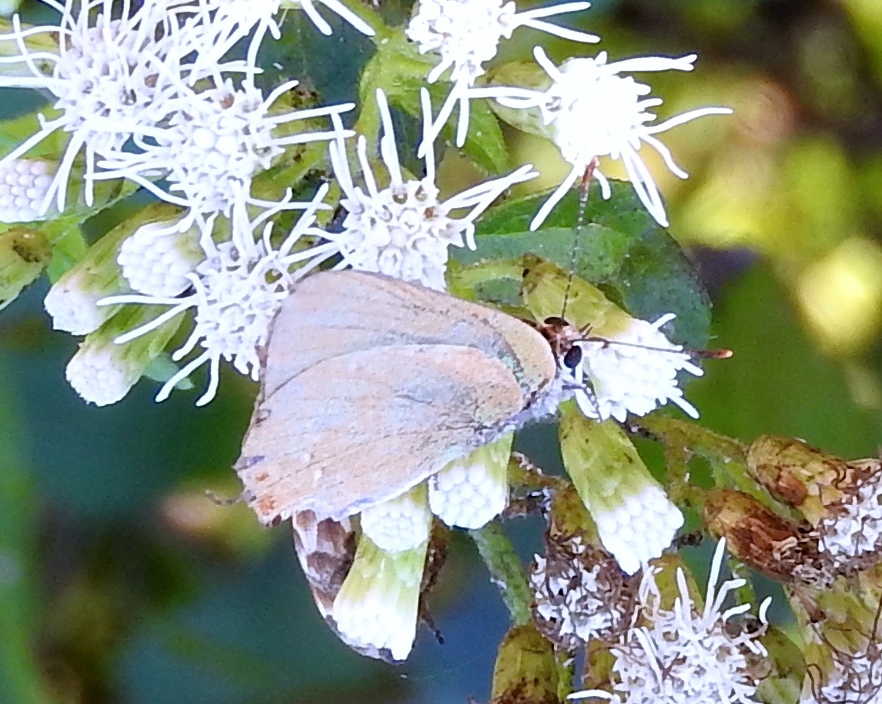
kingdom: Animalia
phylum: Arthropoda
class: Insecta
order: Lepidoptera
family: Lycaenidae
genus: Cyanophrys
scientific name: Cyanophrys
